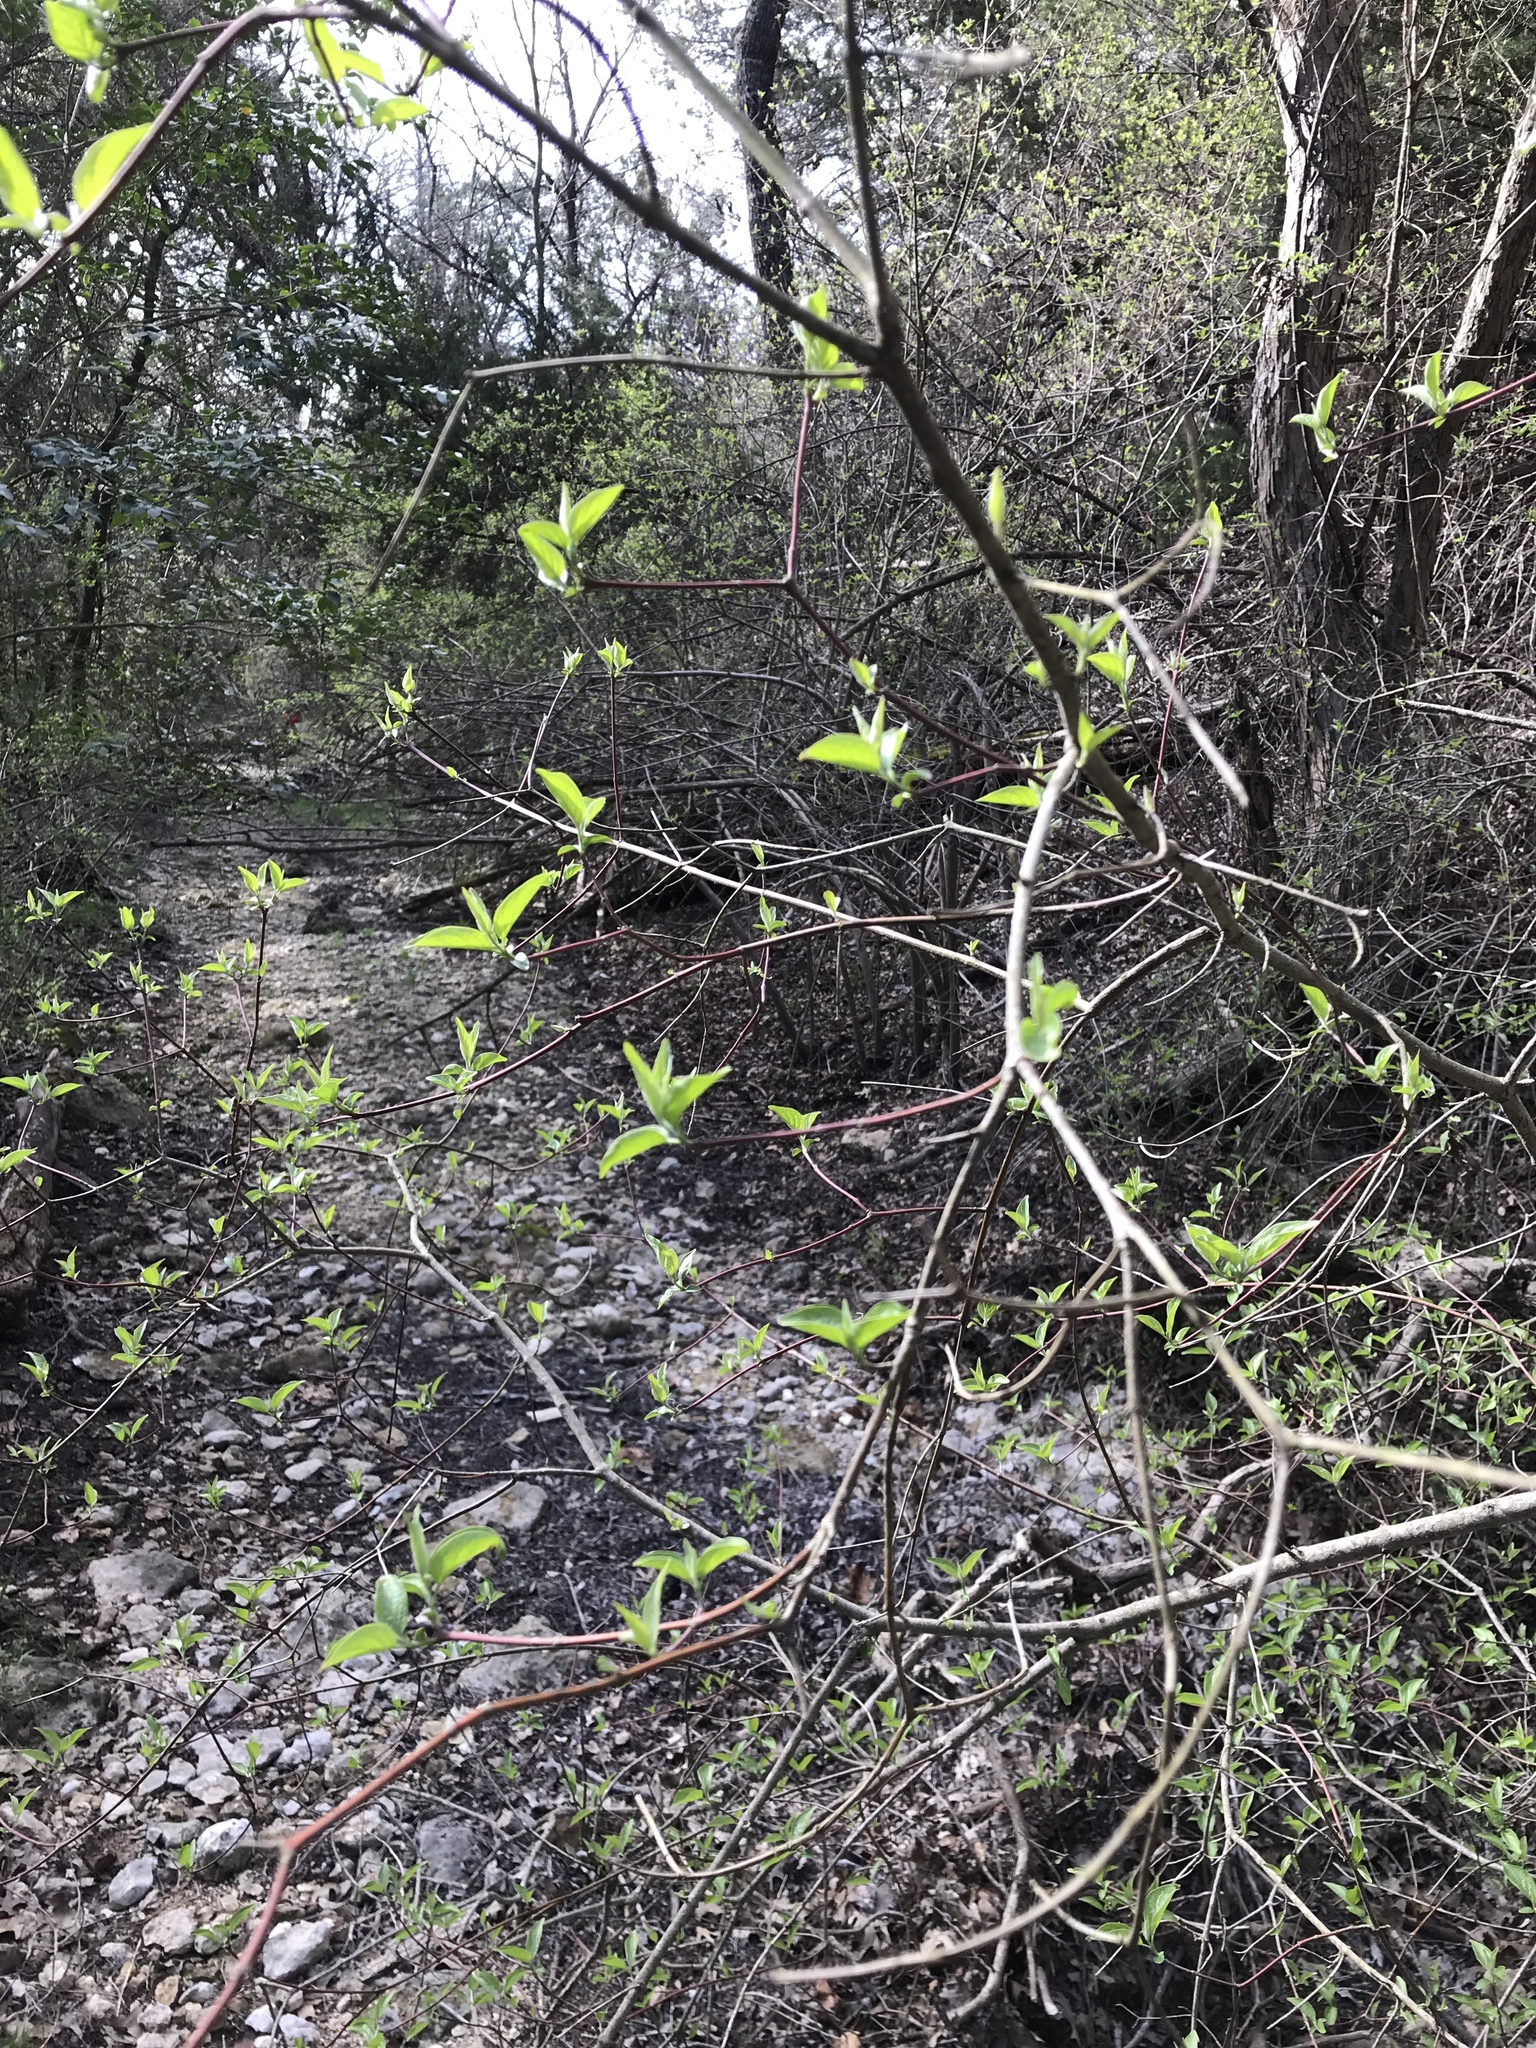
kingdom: Plantae
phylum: Tracheophyta
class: Magnoliopsida
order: Cornales
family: Cornaceae
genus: Cornus
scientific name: Cornus drummondii
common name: Rough-leaf dogwood
